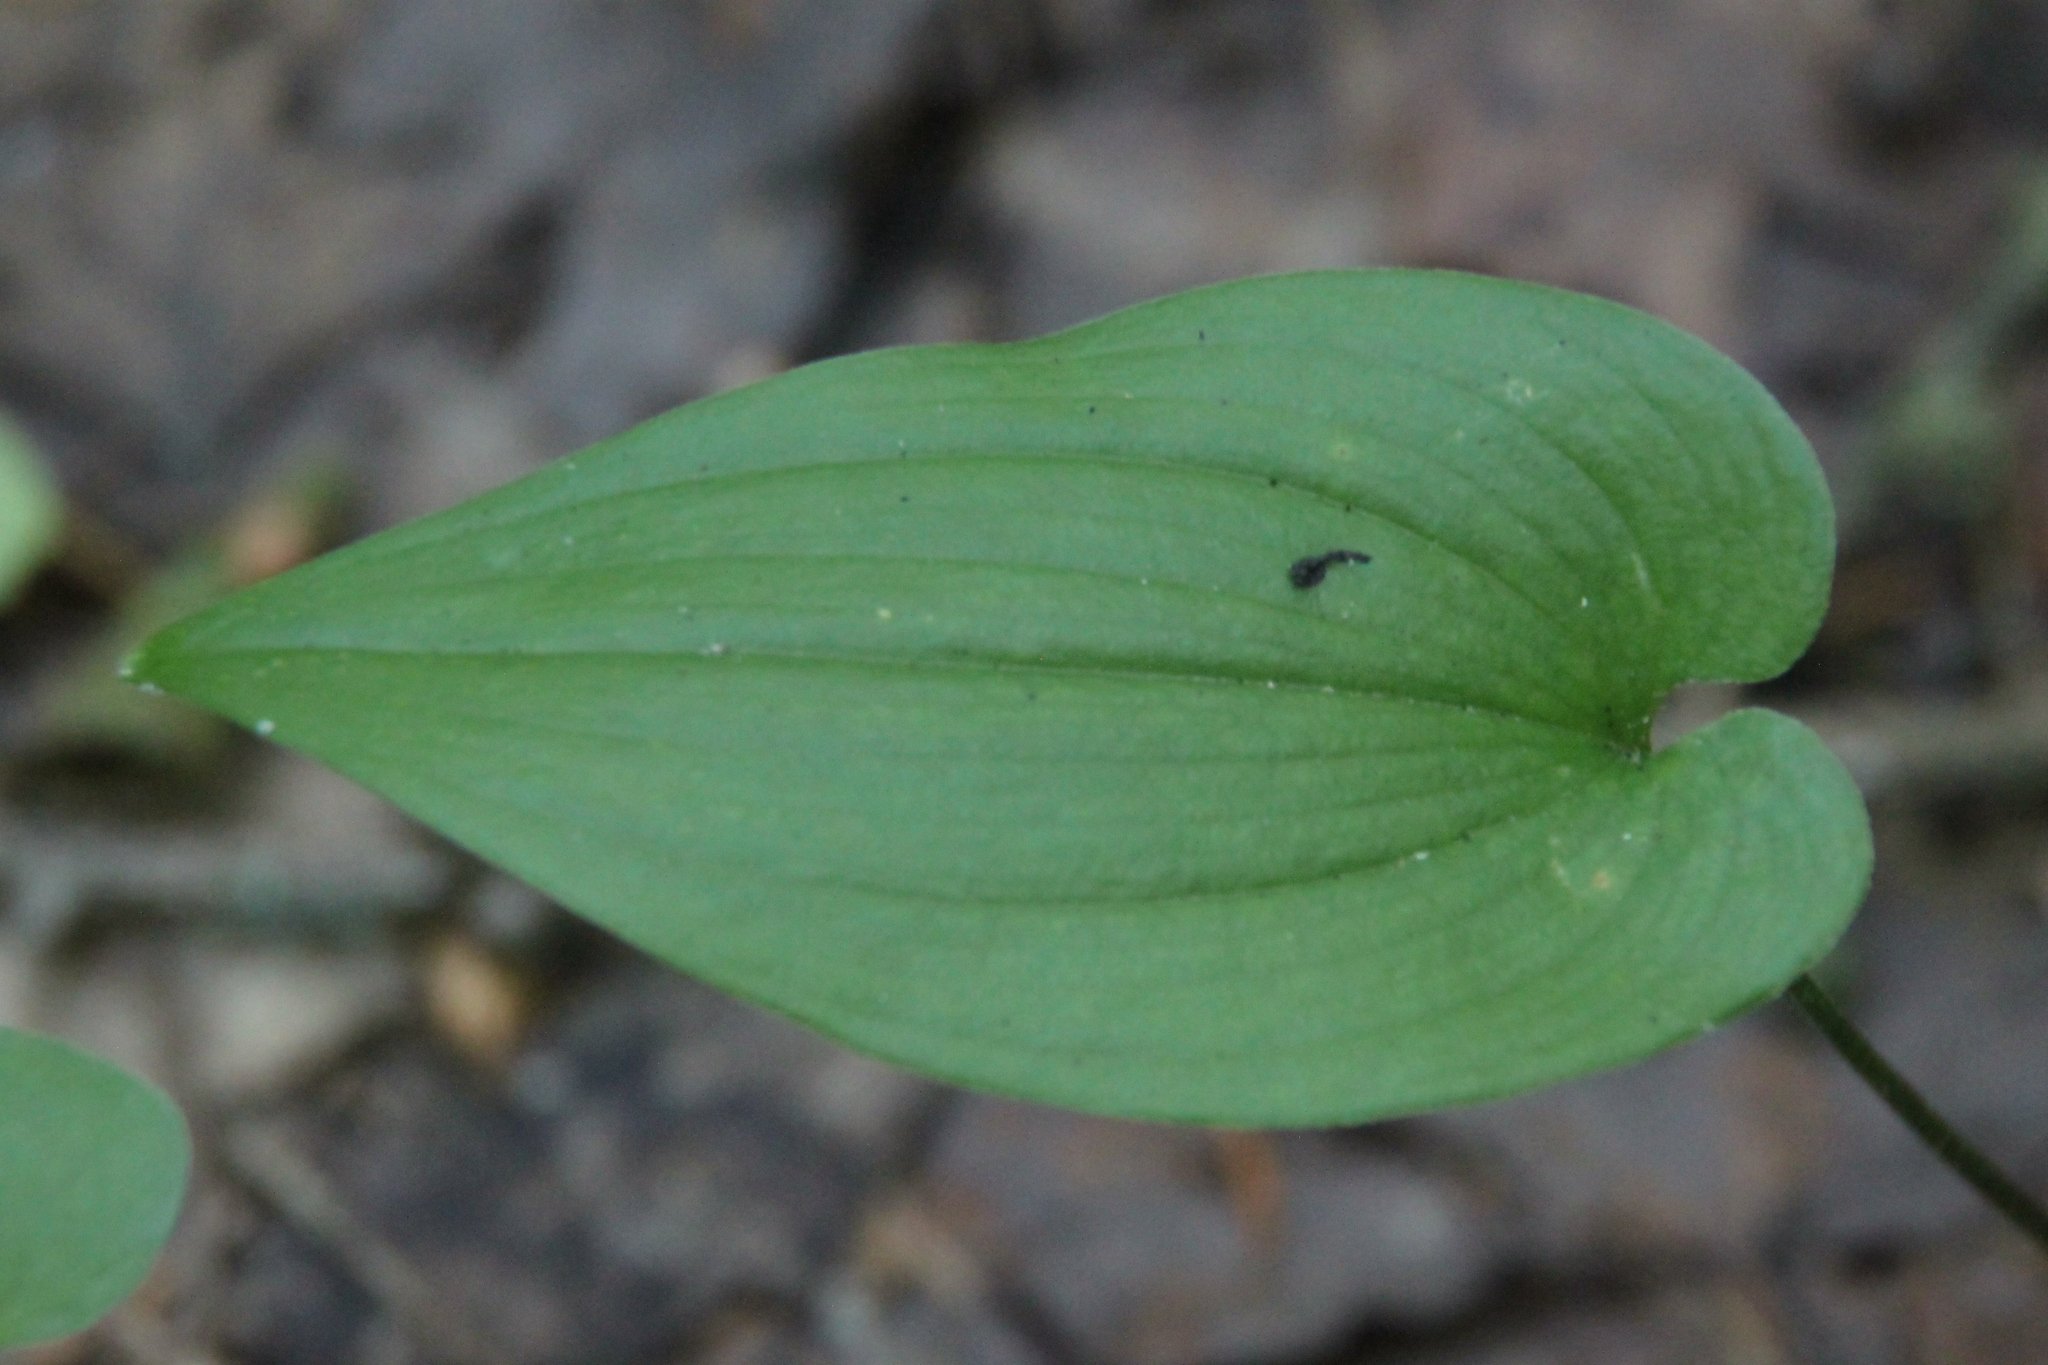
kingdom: Plantae
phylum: Tracheophyta
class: Liliopsida
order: Asparagales
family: Asparagaceae
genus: Maianthemum
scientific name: Maianthemum bifolium
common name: May lily
